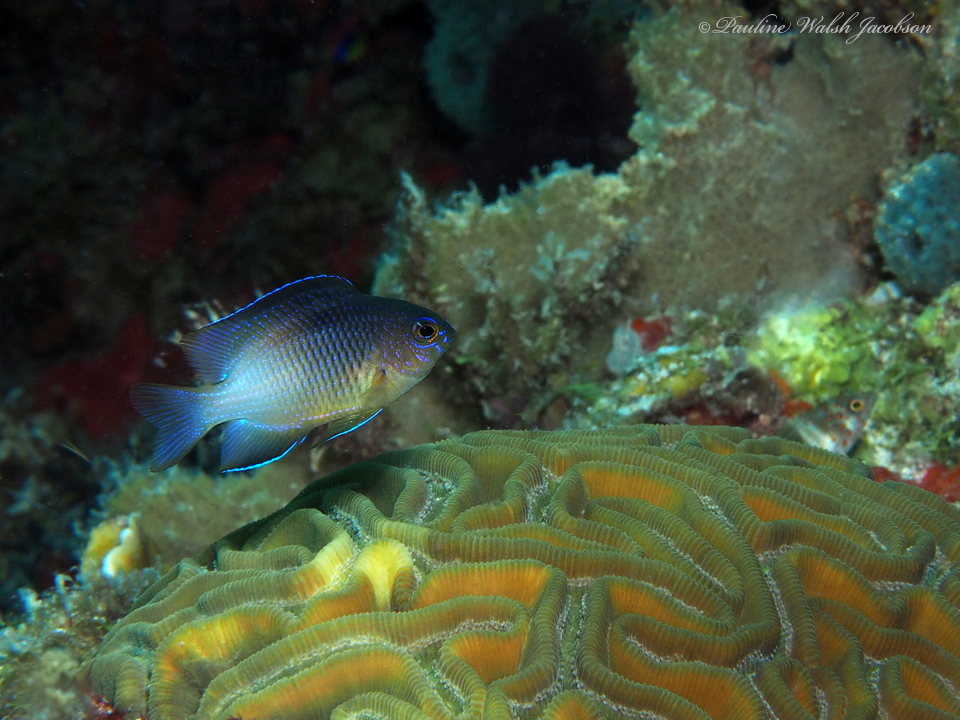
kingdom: Animalia
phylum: Chordata
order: Perciformes
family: Pomacentridae
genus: Stegastes
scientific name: Stegastes partitus
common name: Bicolor damselfish
